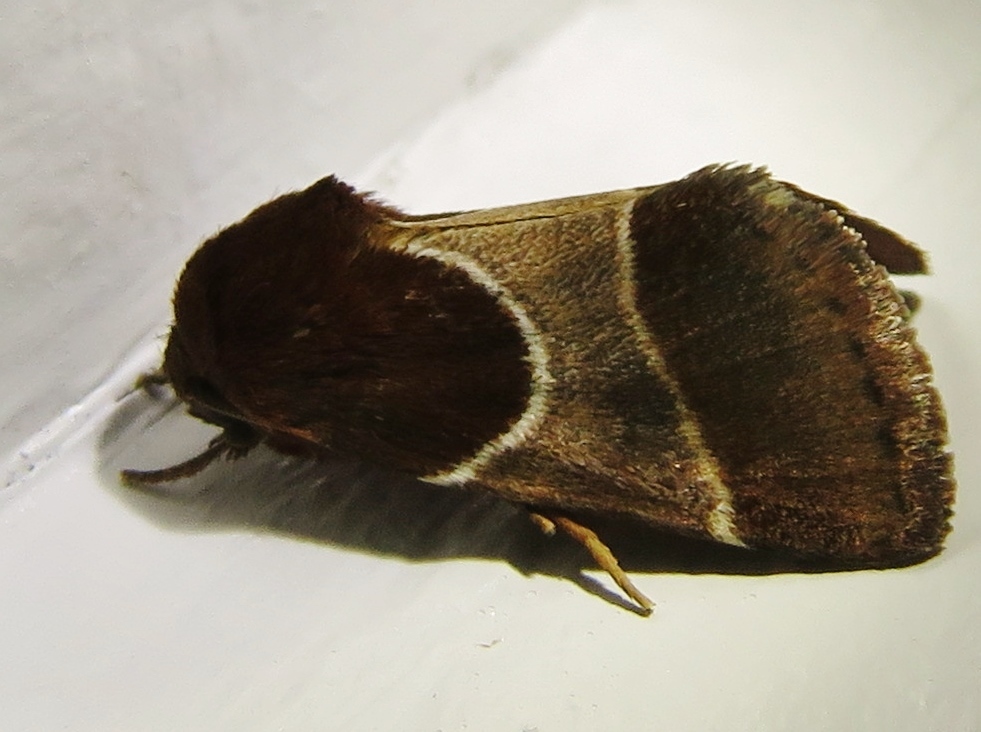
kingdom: Animalia
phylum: Arthropoda
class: Insecta
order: Lepidoptera
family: Noctuidae
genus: Schinia
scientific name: Schinia arcigera
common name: Arcigera flower moth
